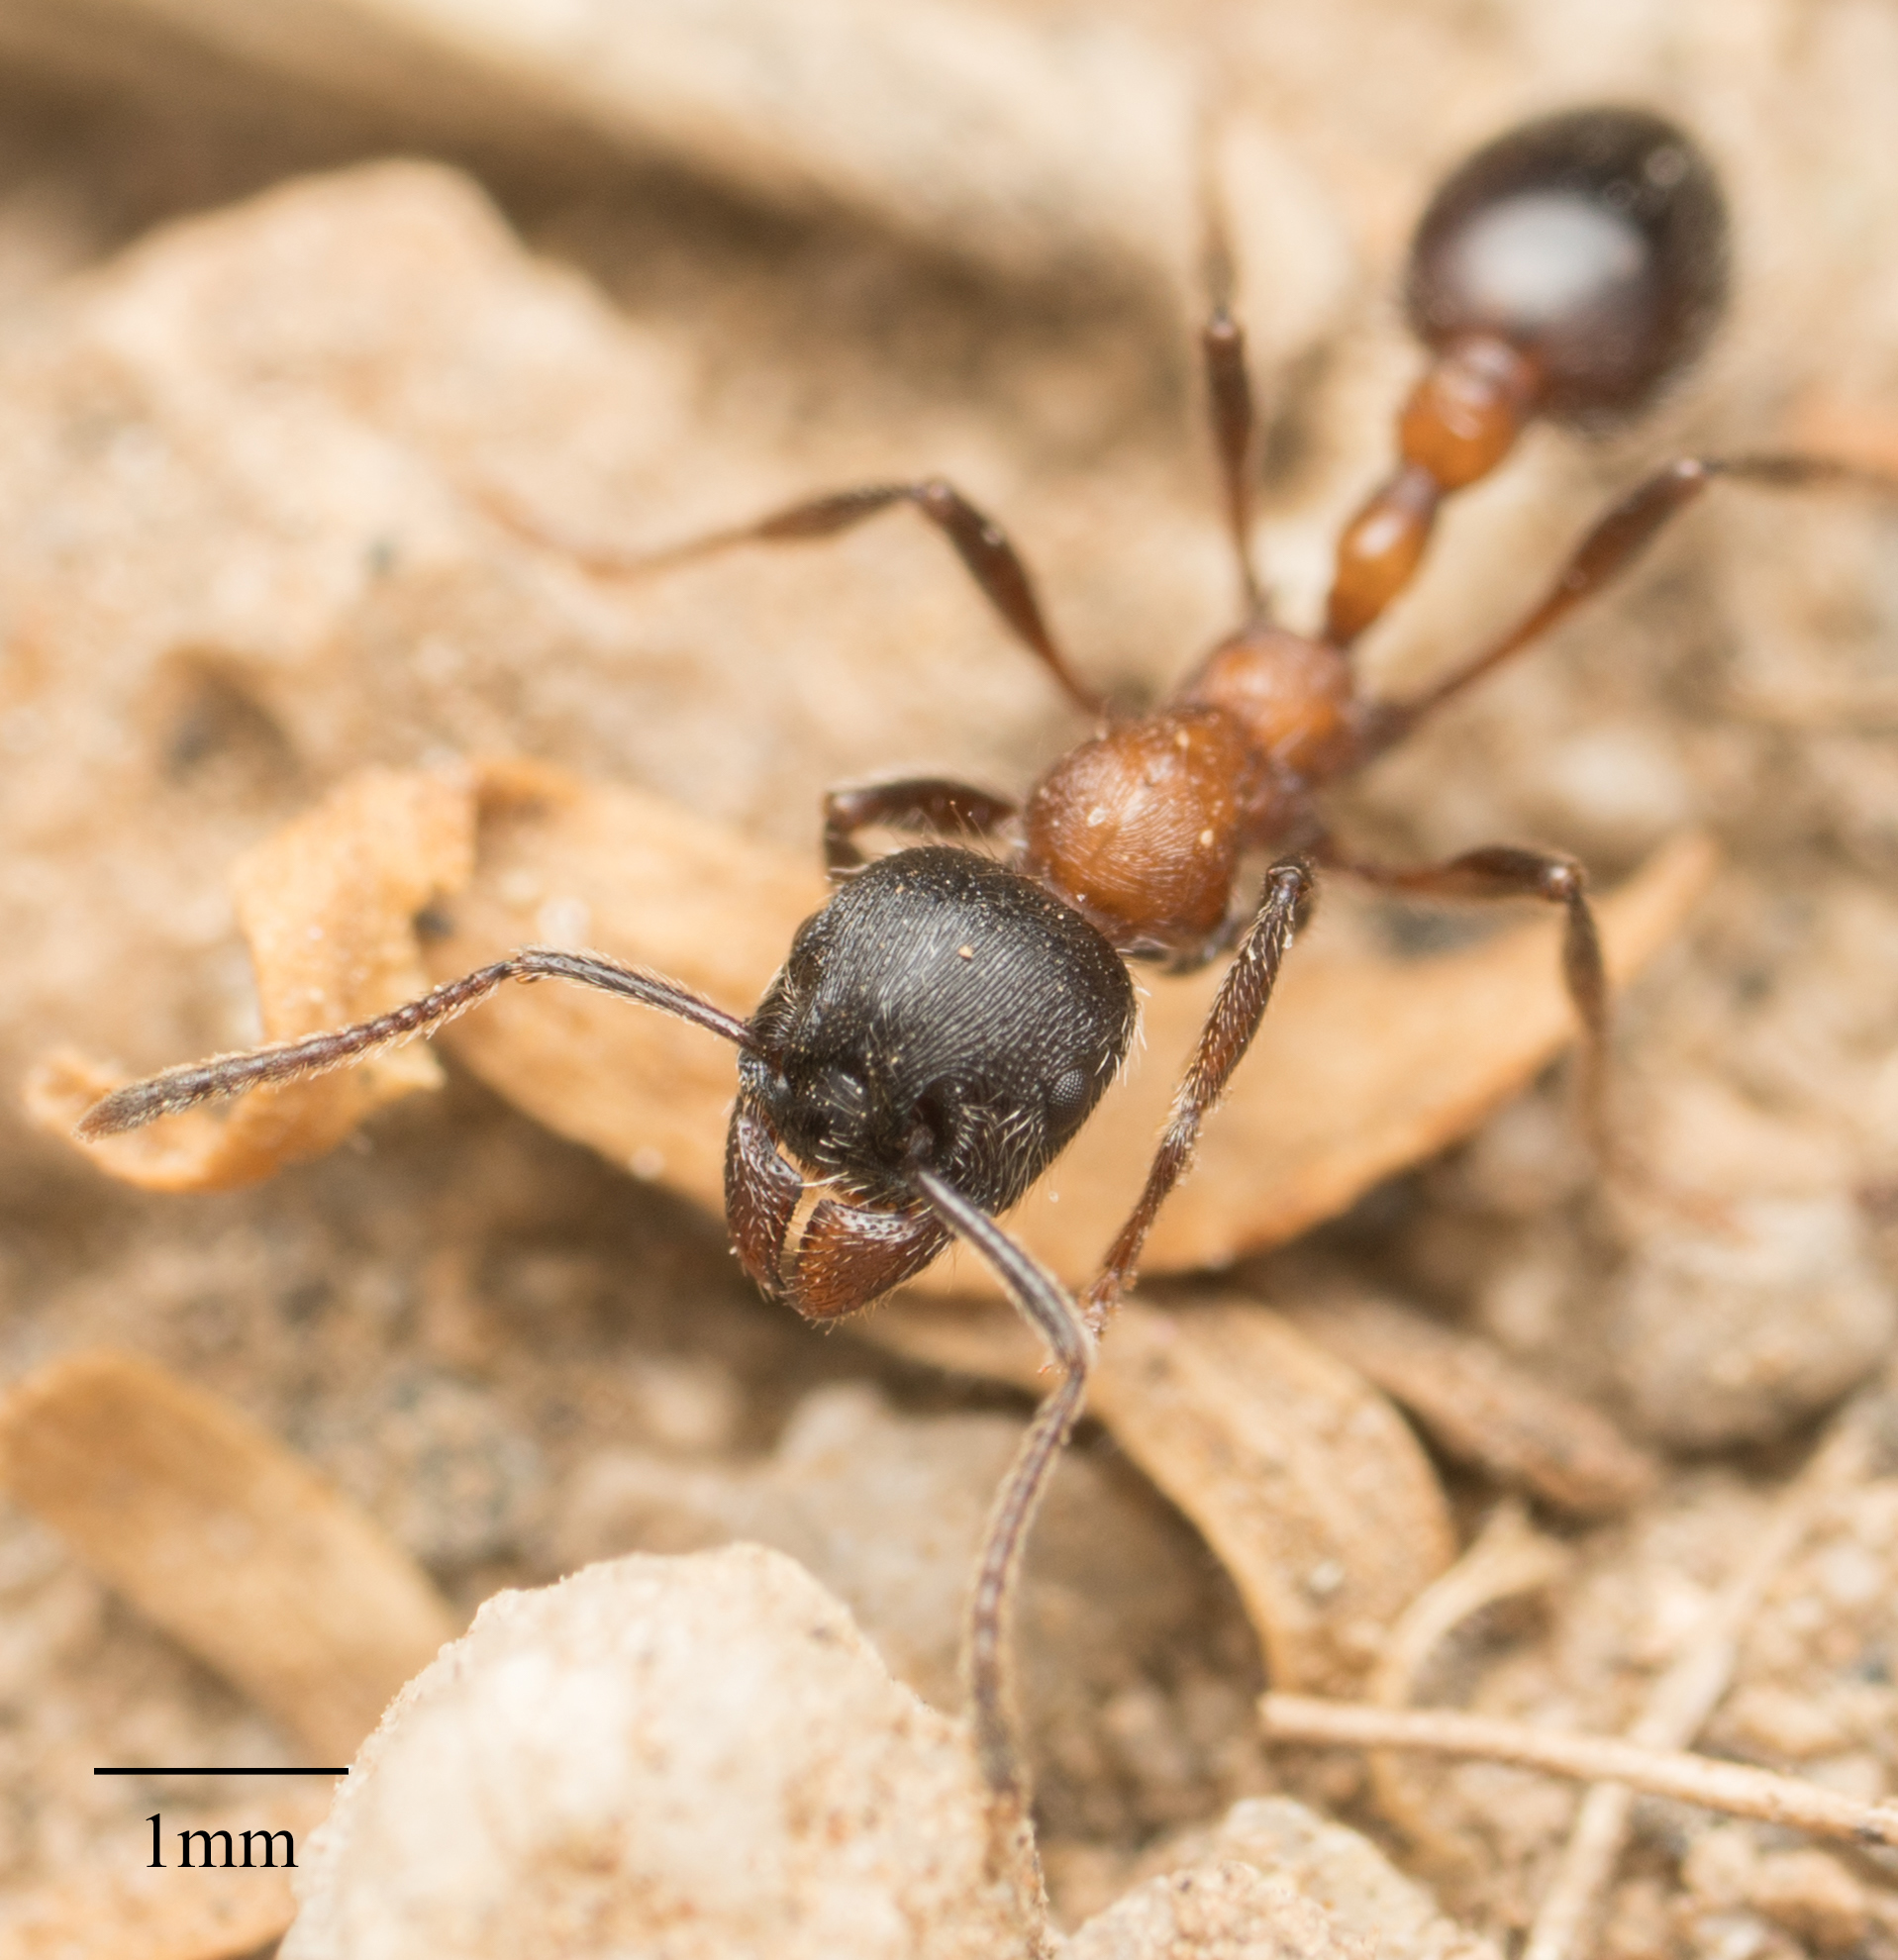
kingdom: Animalia
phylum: Arthropoda
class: Insecta
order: Hymenoptera
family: Formicidae
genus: Manica
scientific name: Manica bradleyi
